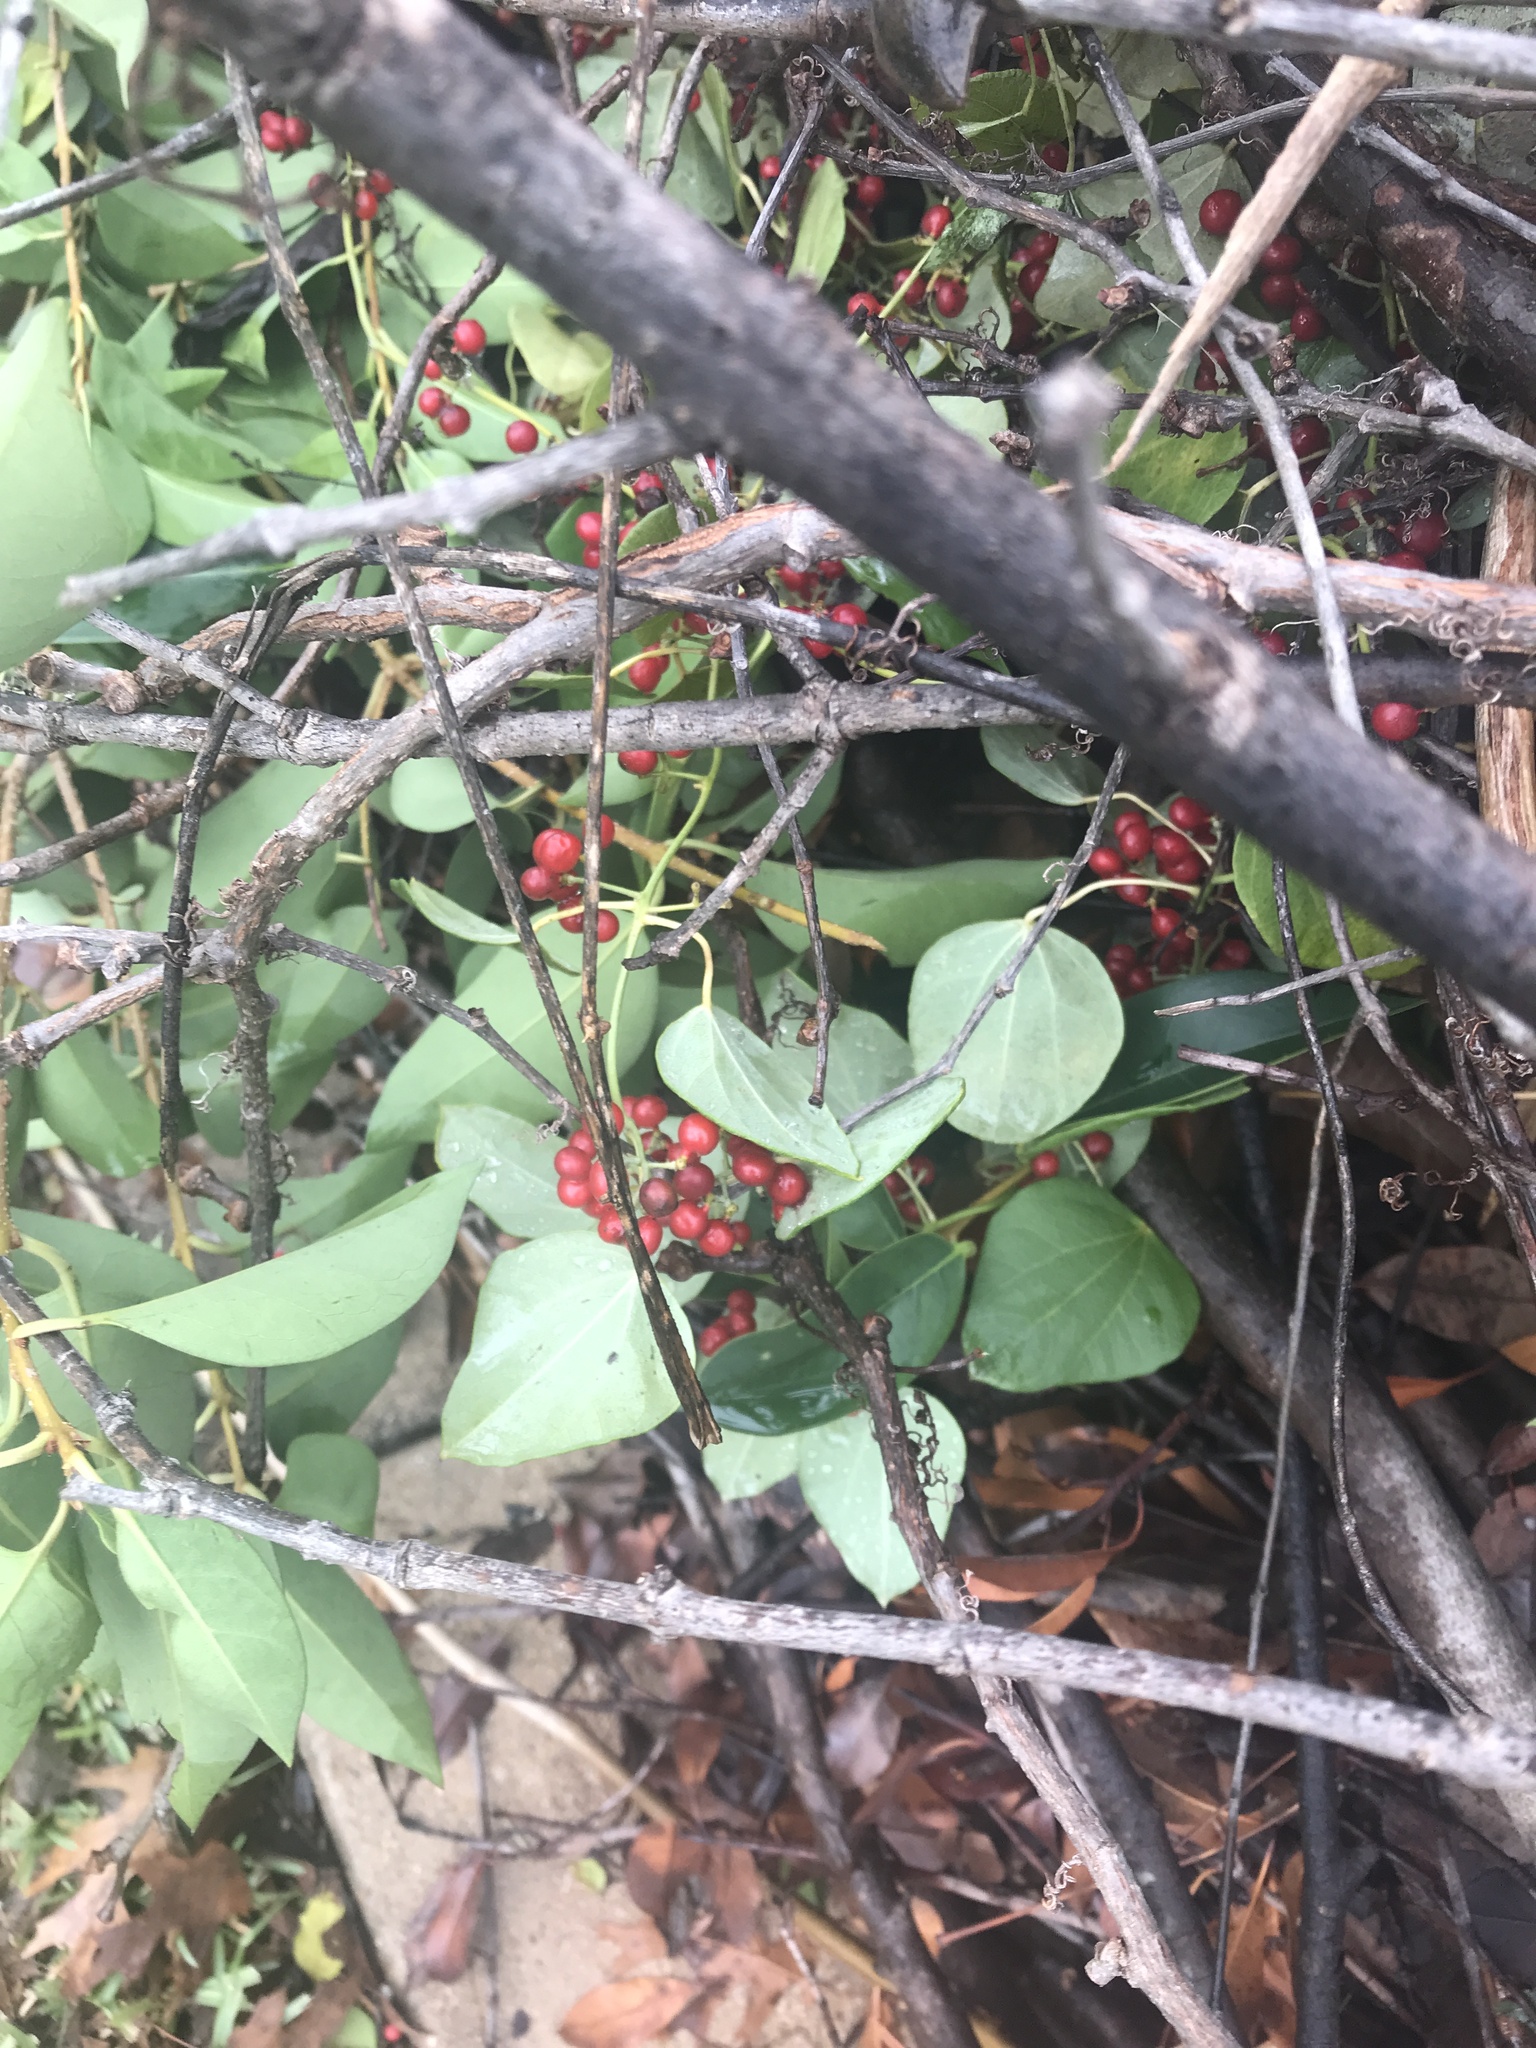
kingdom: Plantae
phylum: Tracheophyta
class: Magnoliopsida
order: Ranunculales
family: Menispermaceae
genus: Cocculus
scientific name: Cocculus carolinus
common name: Carolina moonseed
